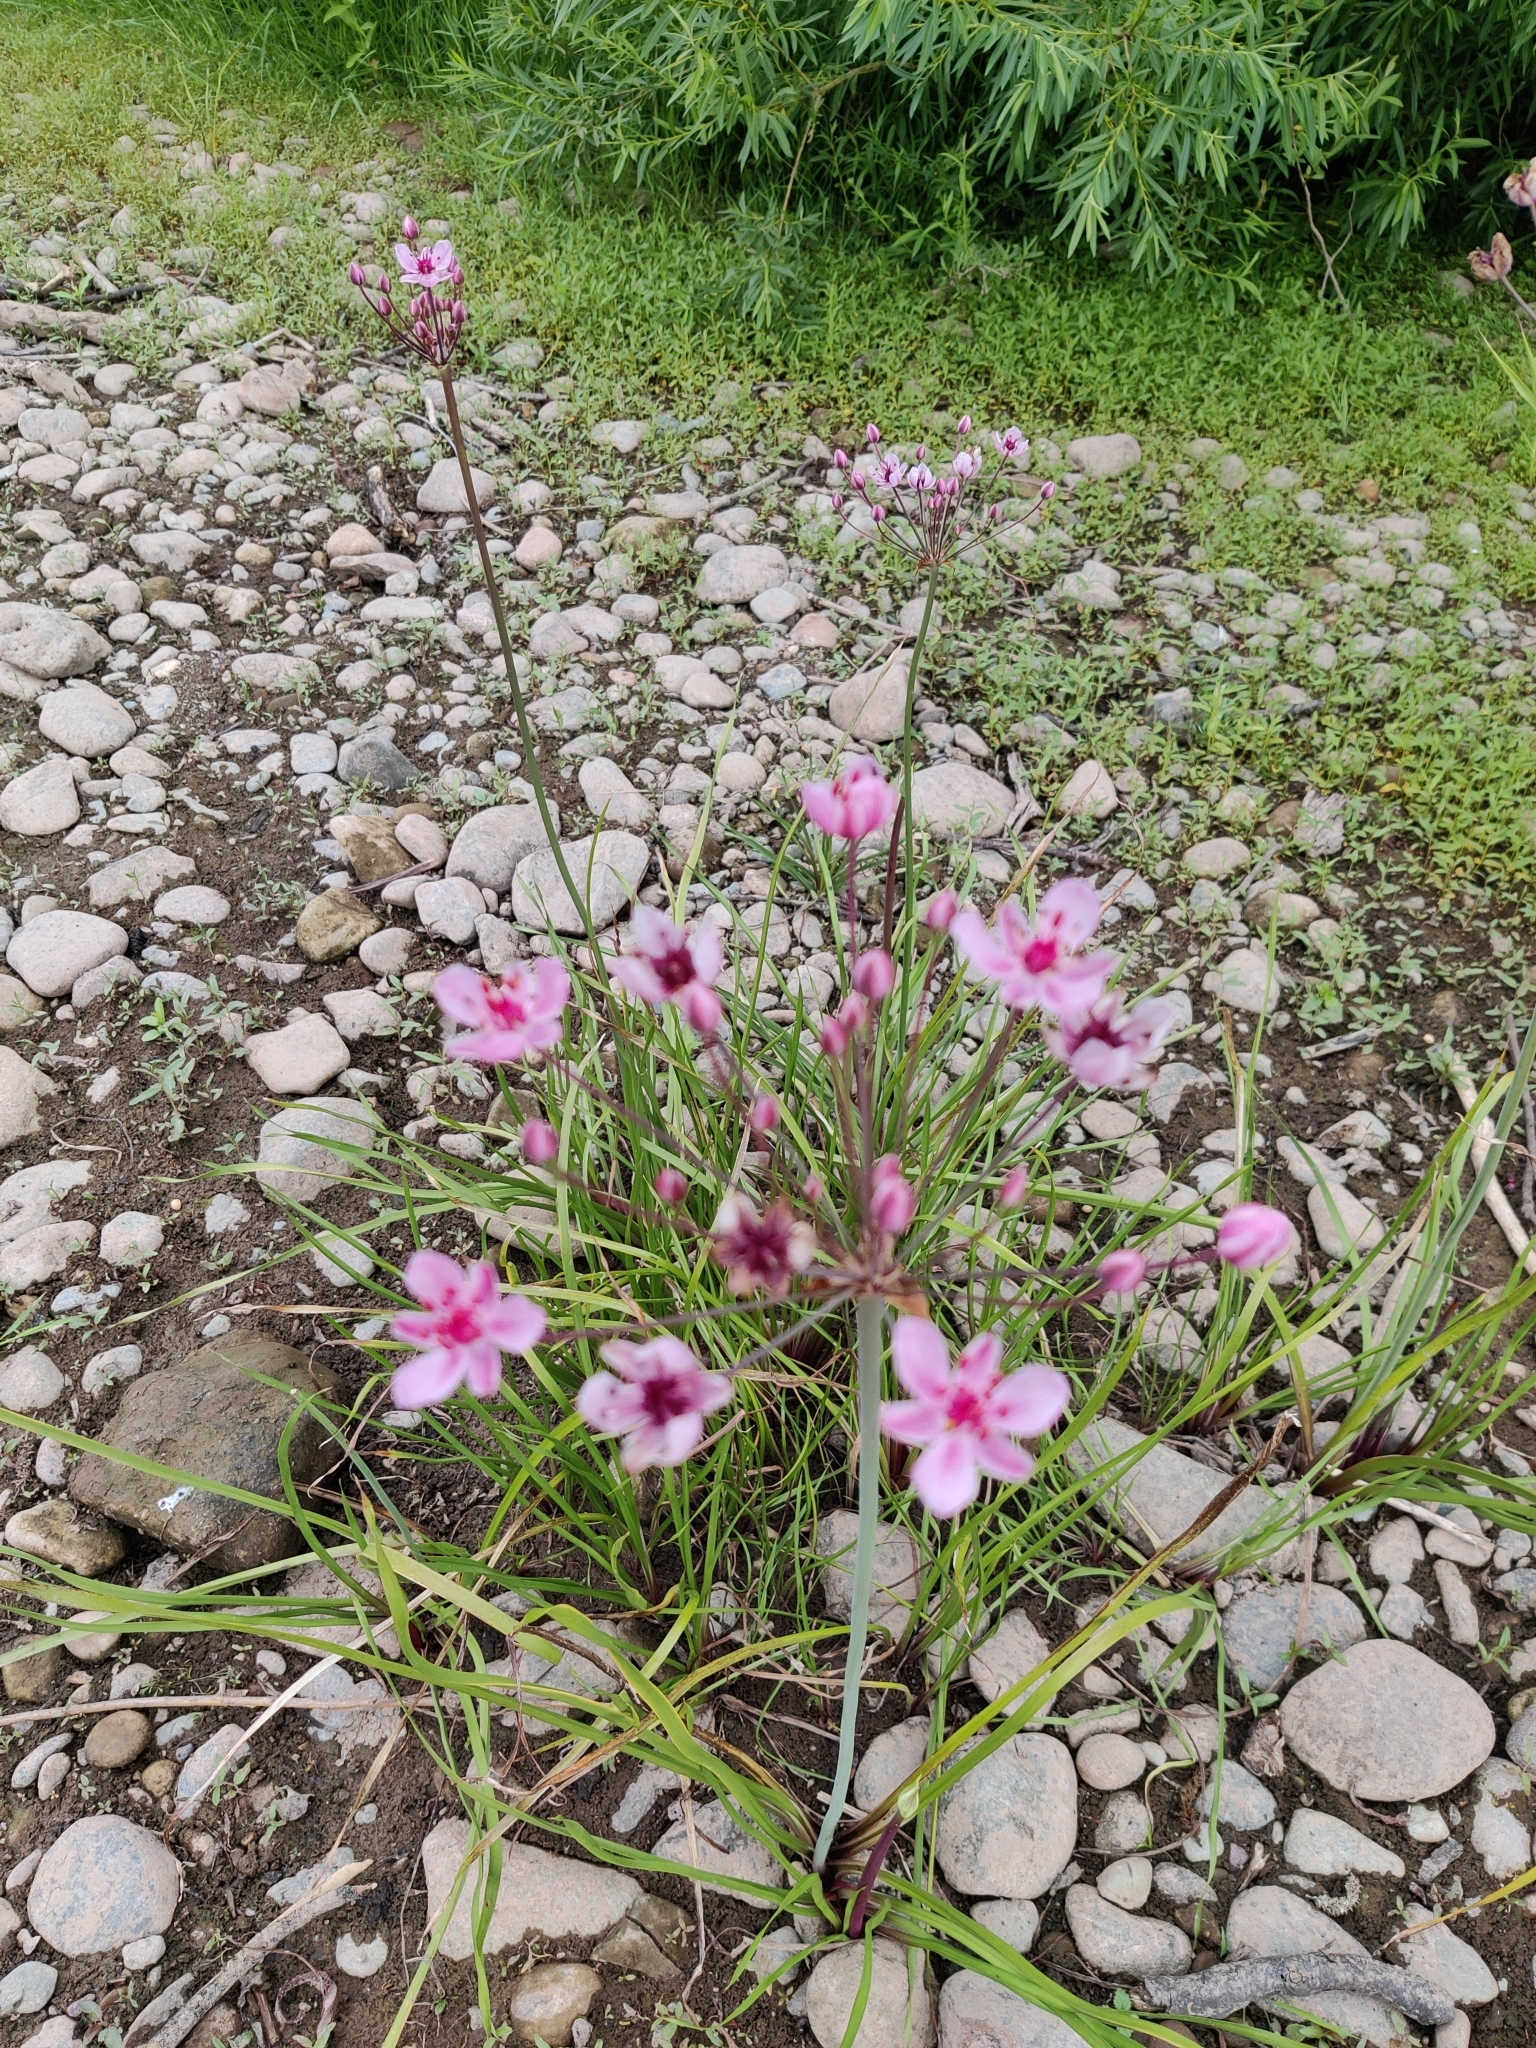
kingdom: Plantae
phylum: Tracheophyta
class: Liliopsida
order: Alismatales
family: Butomaceae
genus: Butomus
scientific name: Butomus umbellatus
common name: Flowering-rush
